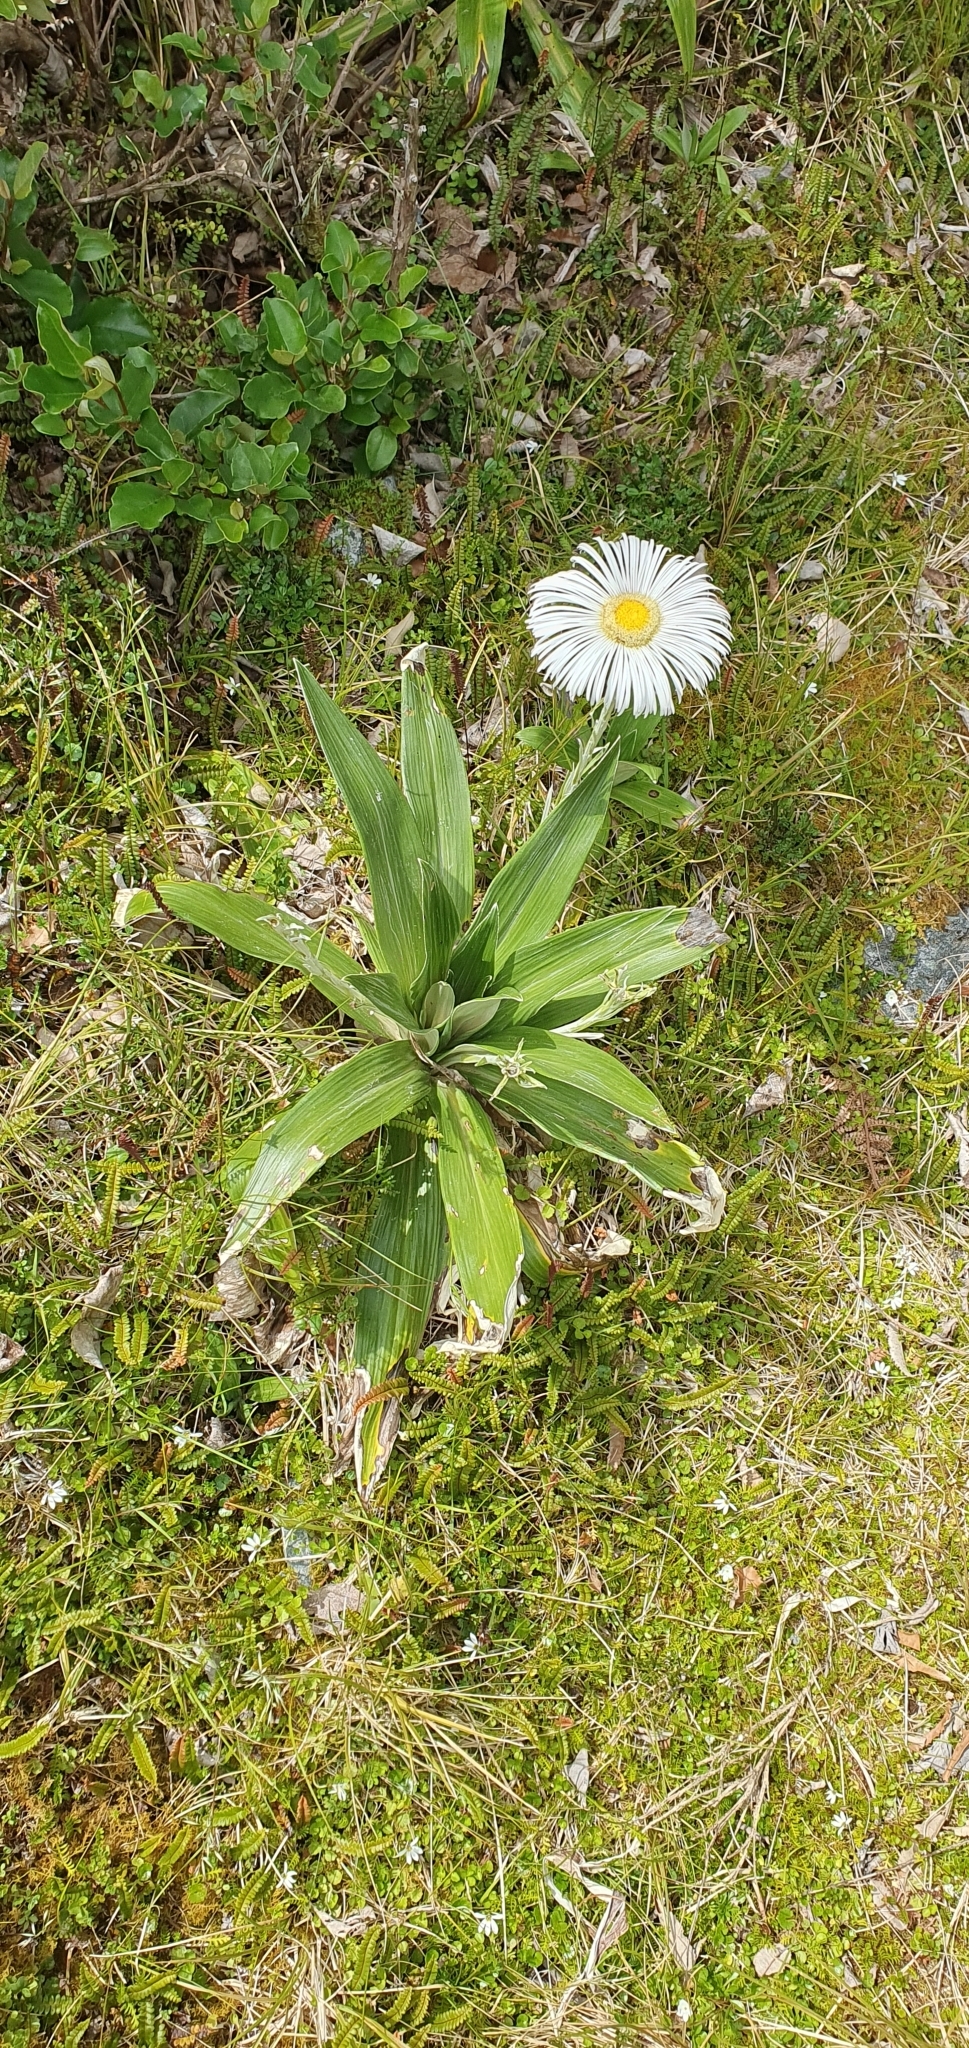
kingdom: Plantae
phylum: Tracheophyta
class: Magnoliopsida
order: Asterales
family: Asteraceae
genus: Celmisia
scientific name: Celmisia semicordata
